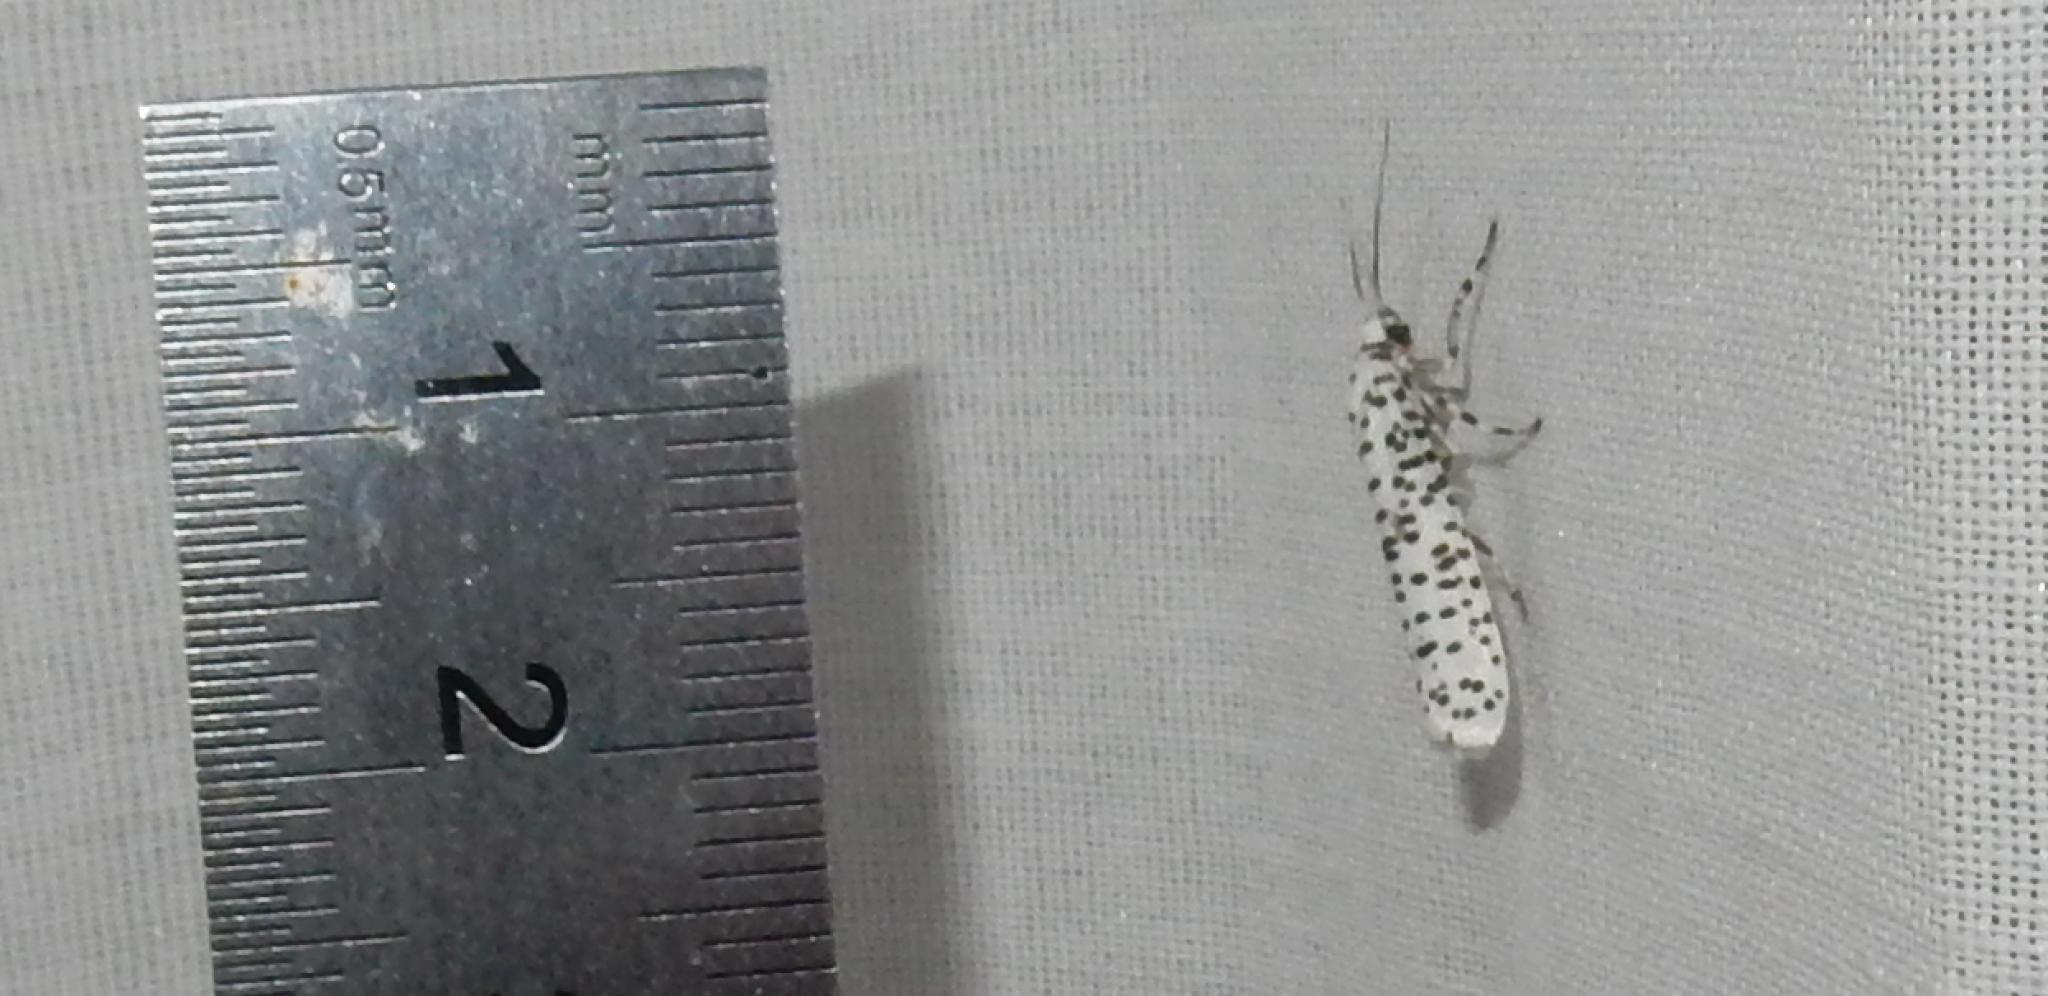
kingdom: Animalia
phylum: Arthropoda
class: Insecta
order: Lepidoptera
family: Yponomeutidae
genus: Yponomeuta
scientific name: Yponomeuta strigillata
